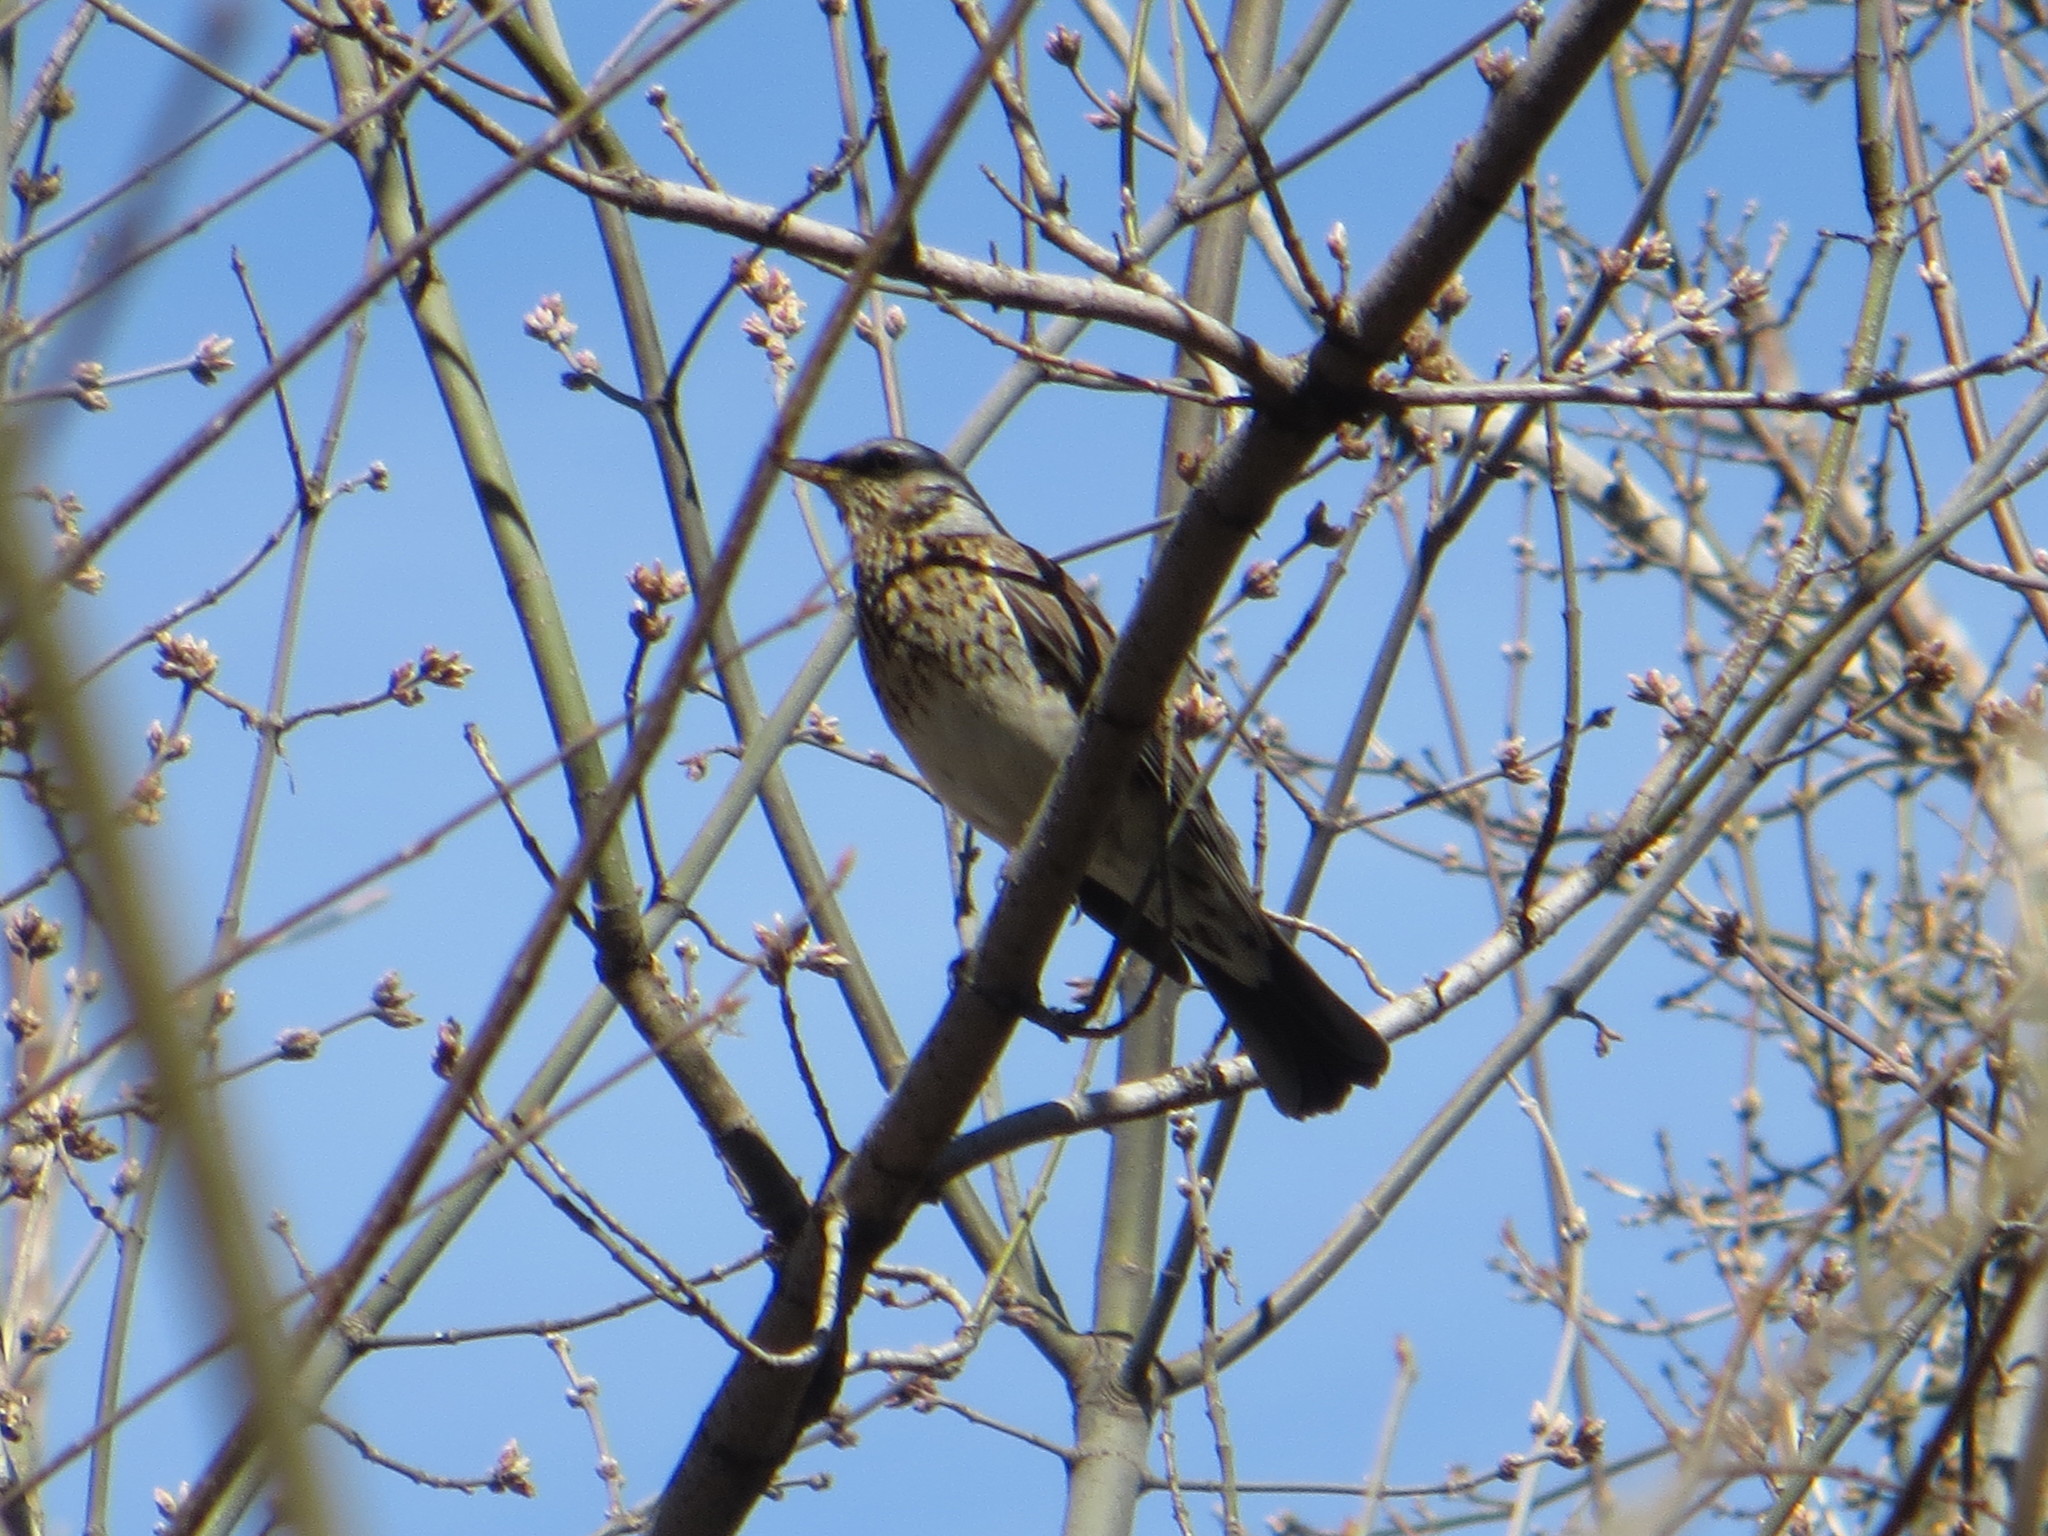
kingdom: Animalia
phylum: Chordata
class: Aves
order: Passeriformes
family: Turdidae
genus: Turdus
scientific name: Turdus pilaris
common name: Fieldfare
